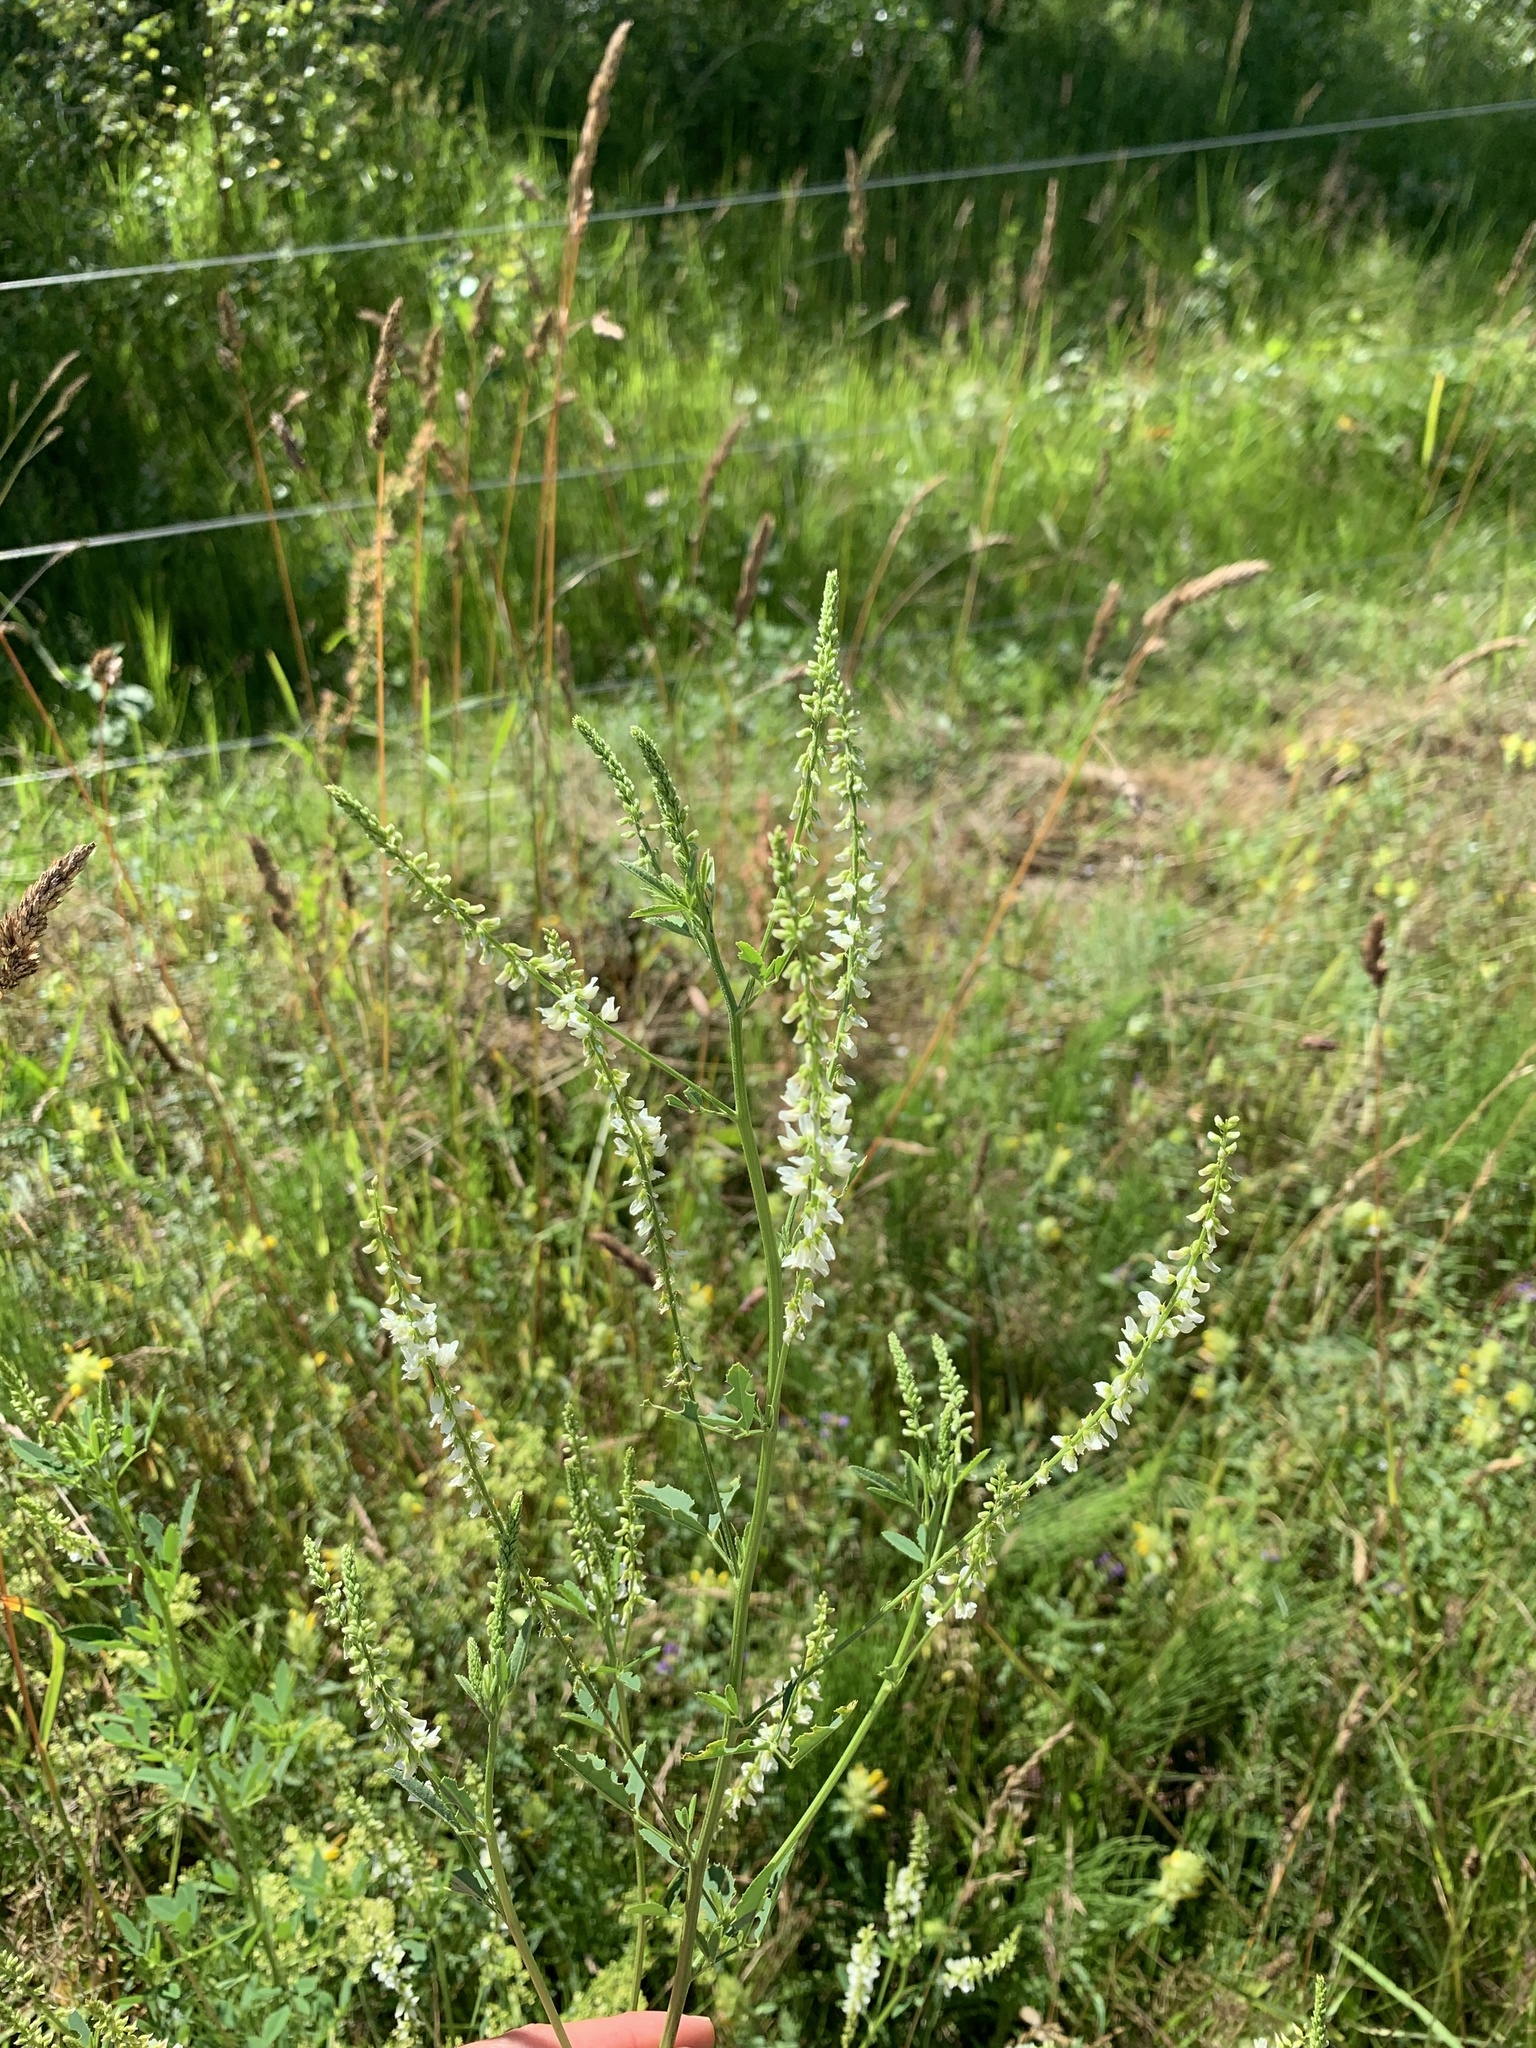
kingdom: Plantae
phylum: Tracheophyta
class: Magnoliopsida
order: Fabales
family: Fabaceae
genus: Melilotus
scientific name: Melilotus albus
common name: White melilot
